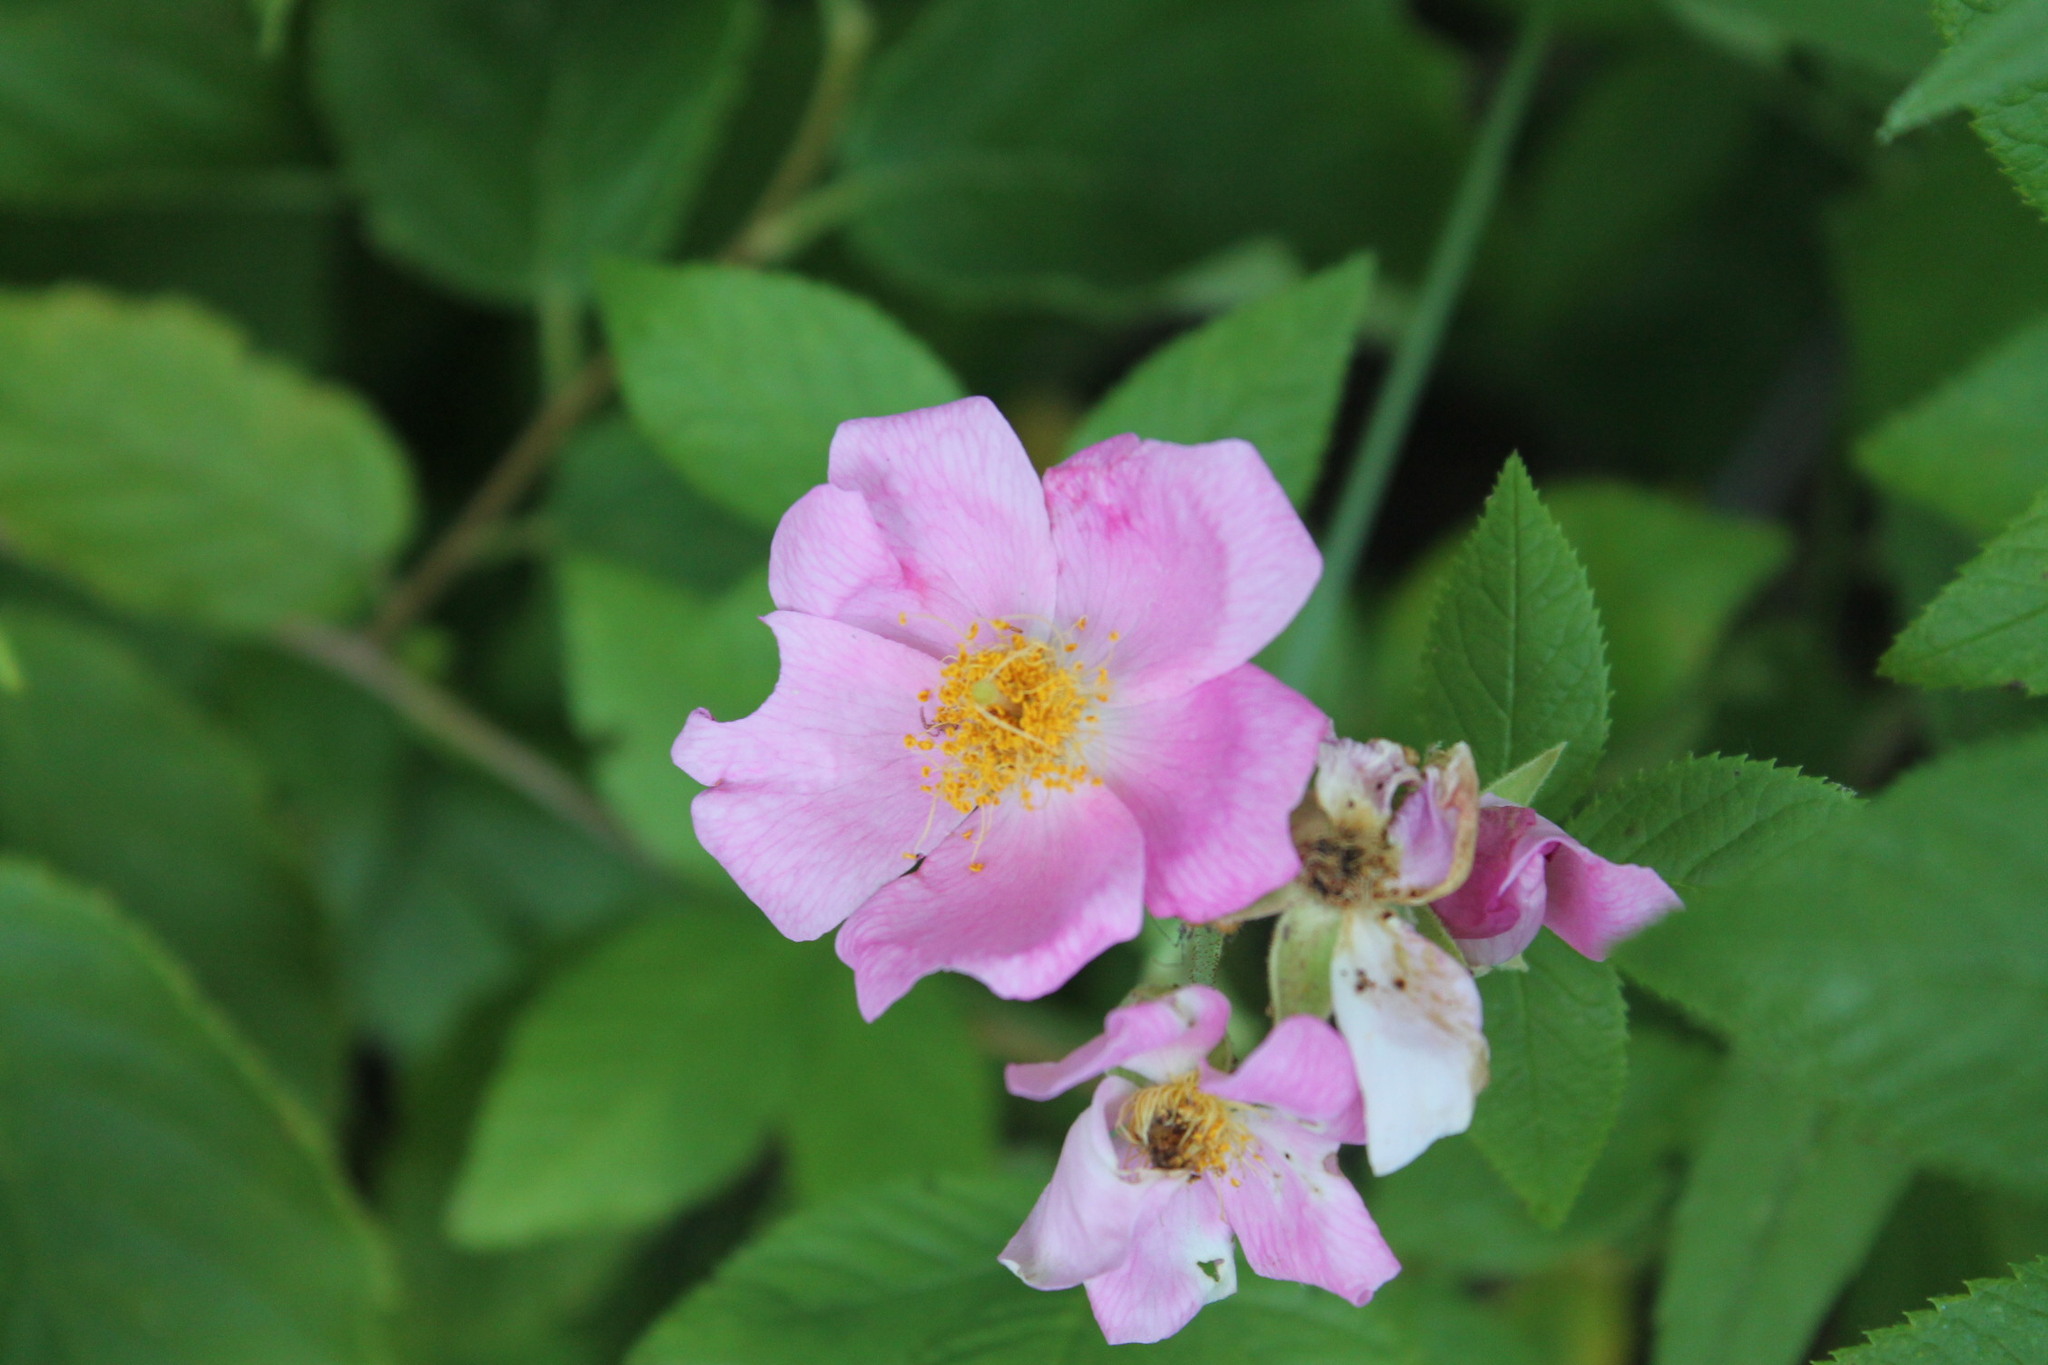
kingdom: Plantae
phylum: Tracheophyta
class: Magnoliopsida
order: Rosales
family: Rosaceae
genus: Rosa
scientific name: Rosa setigera
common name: Prairie rose
